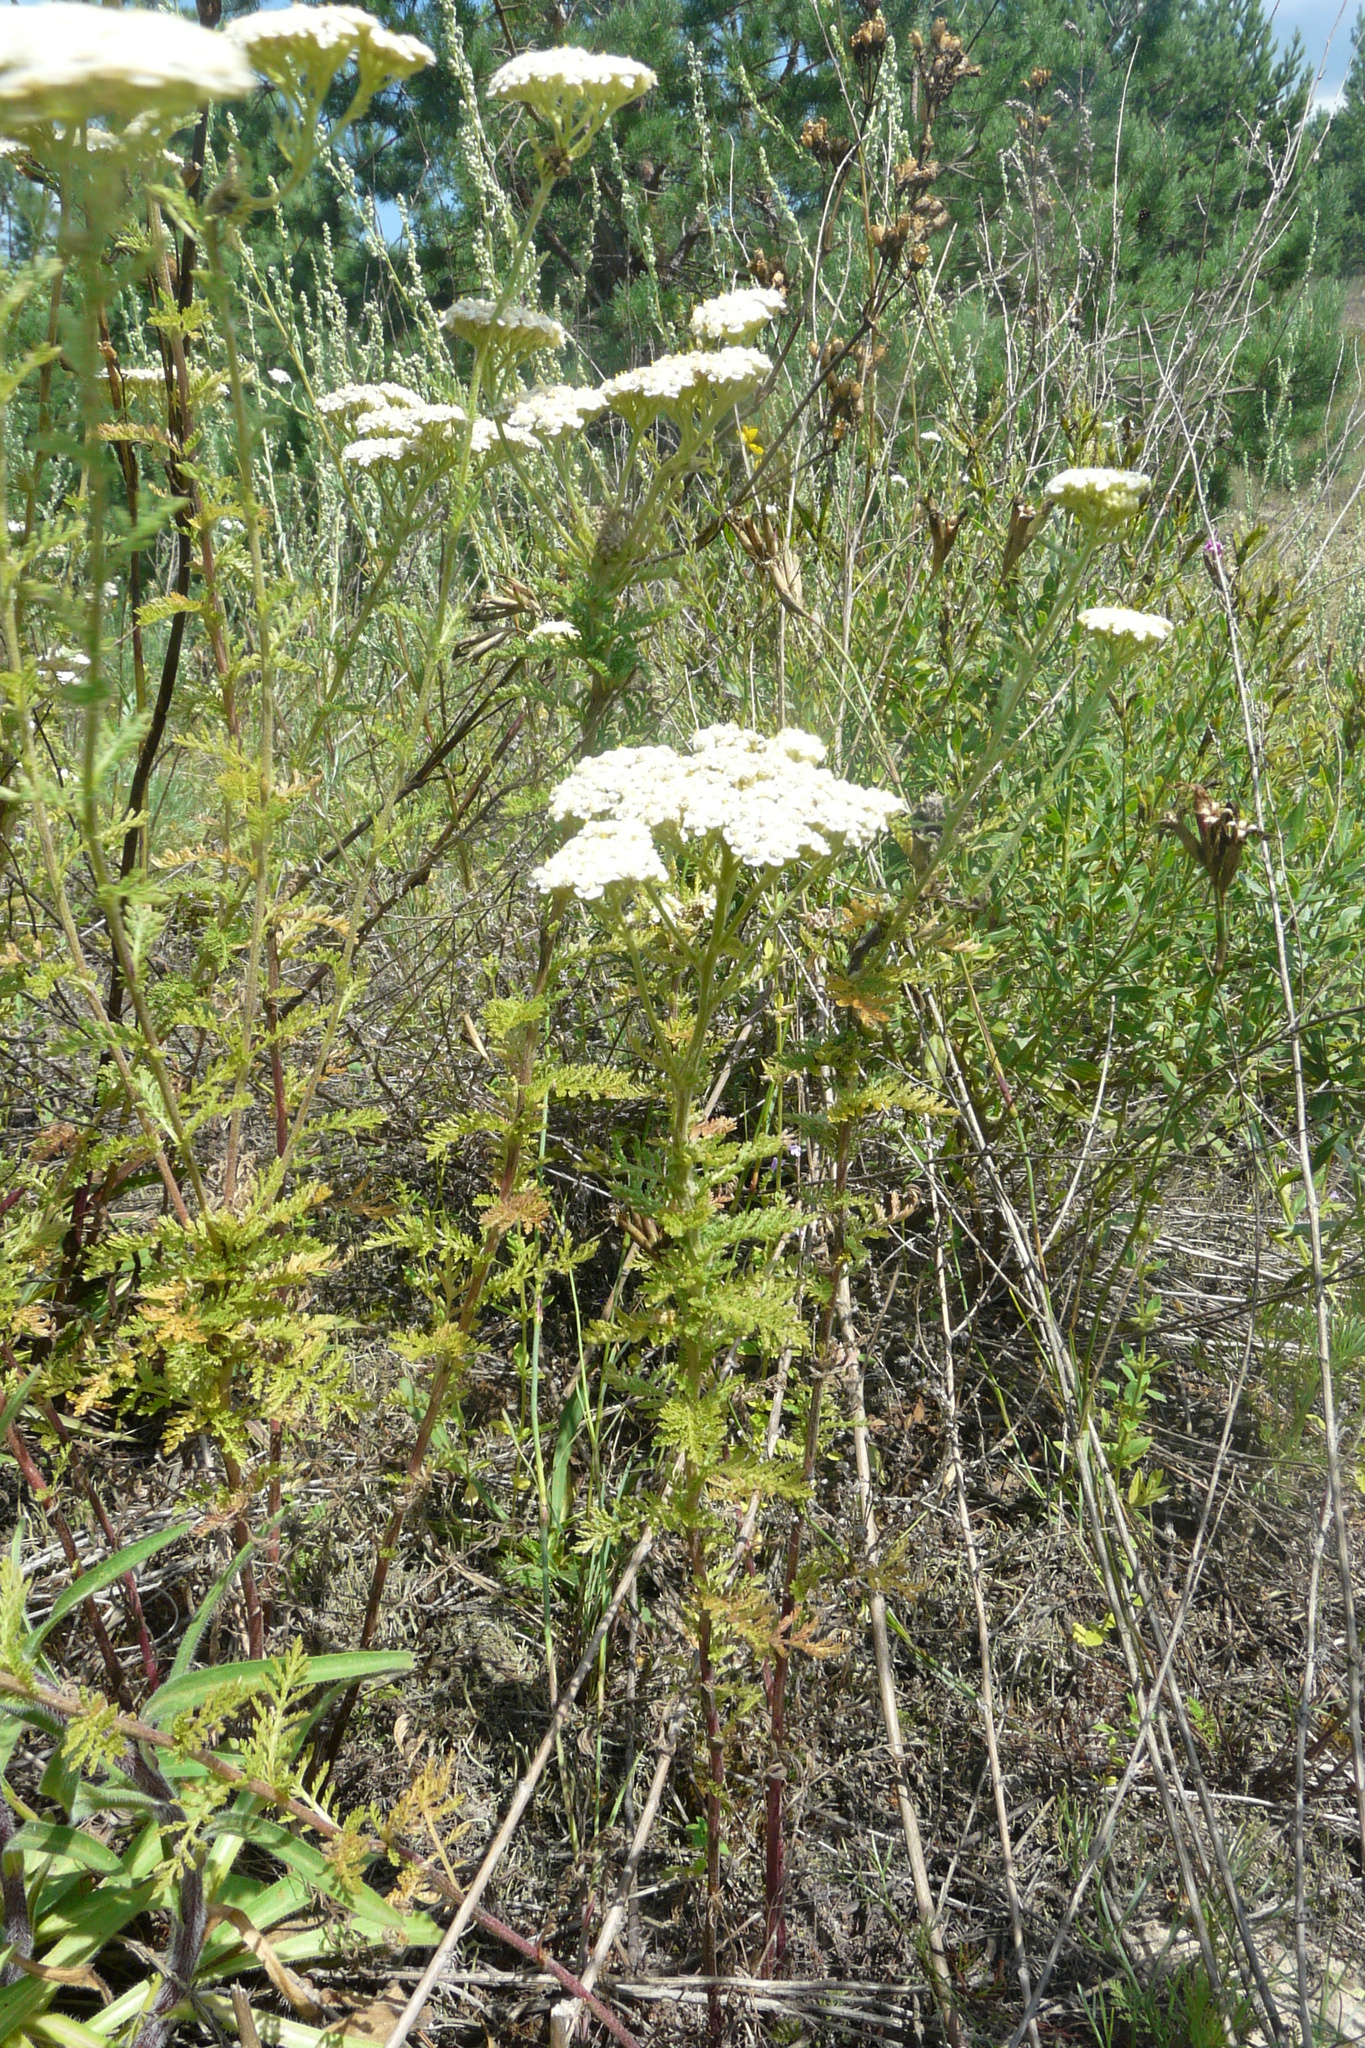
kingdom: Plantae
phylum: Tracheophyta
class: Magnoliopsida
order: Asterales
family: Asteraceae
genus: Achillea
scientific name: Achillea nobilis
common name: Noble yarrow
